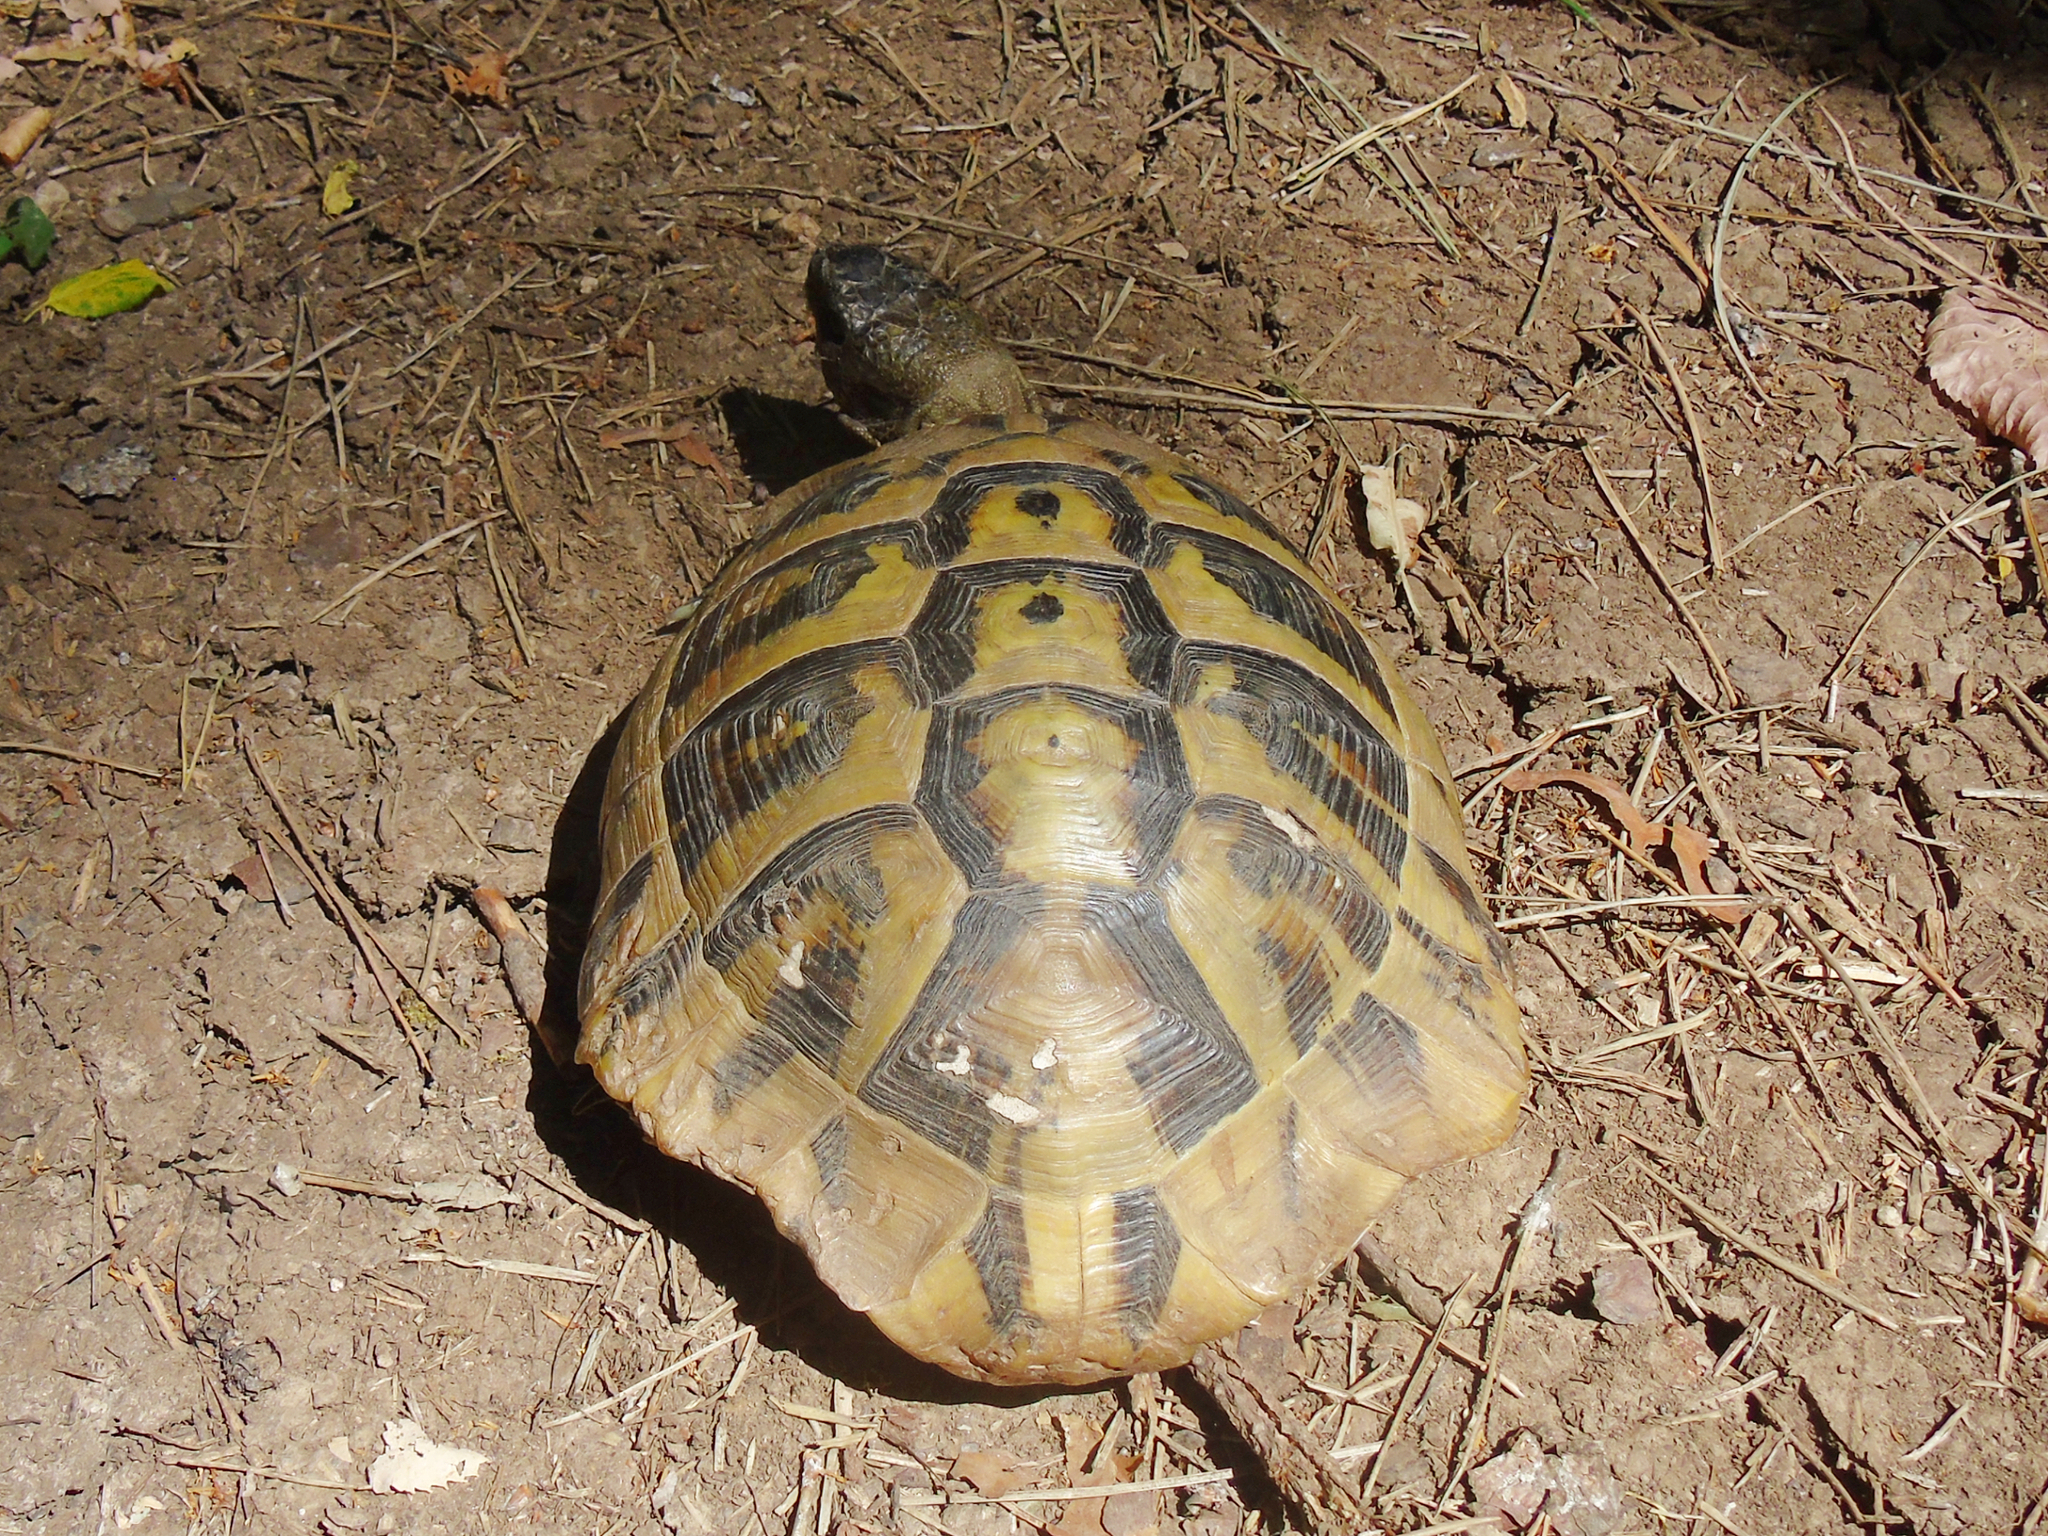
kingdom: Animalia
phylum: Chordata
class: Testudines
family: Testudinidae
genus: Testudo
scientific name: Testudo hermanni
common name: Hermann's tortoise
